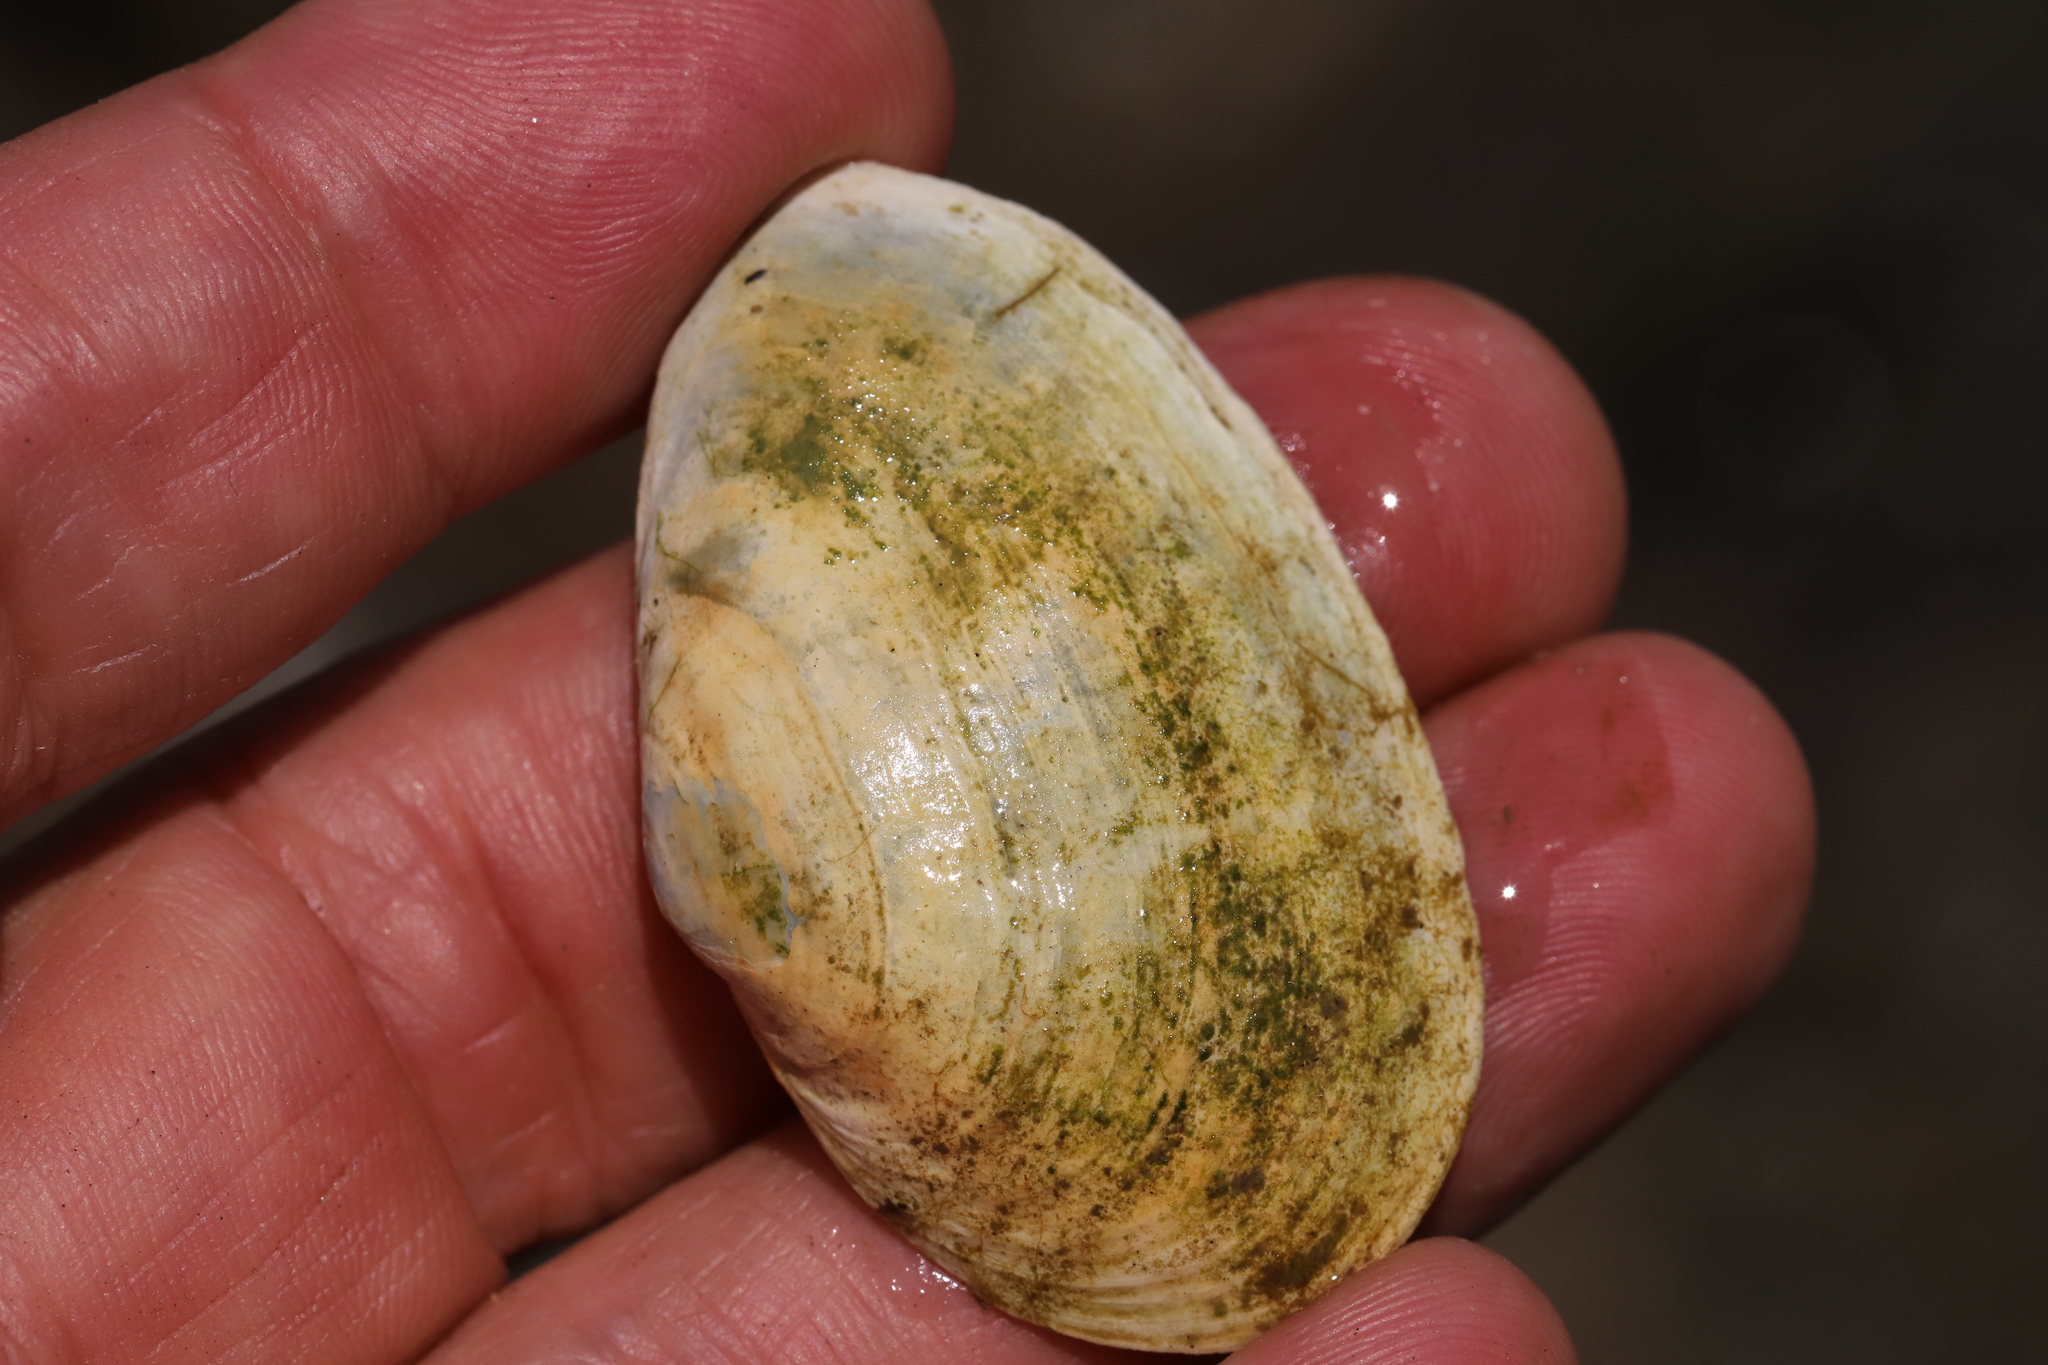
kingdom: Animalia
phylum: Mollusca
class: Bivalvia
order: Myida
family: Myidae
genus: Mya
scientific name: Mya arenaria
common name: Soft-shelled clam
